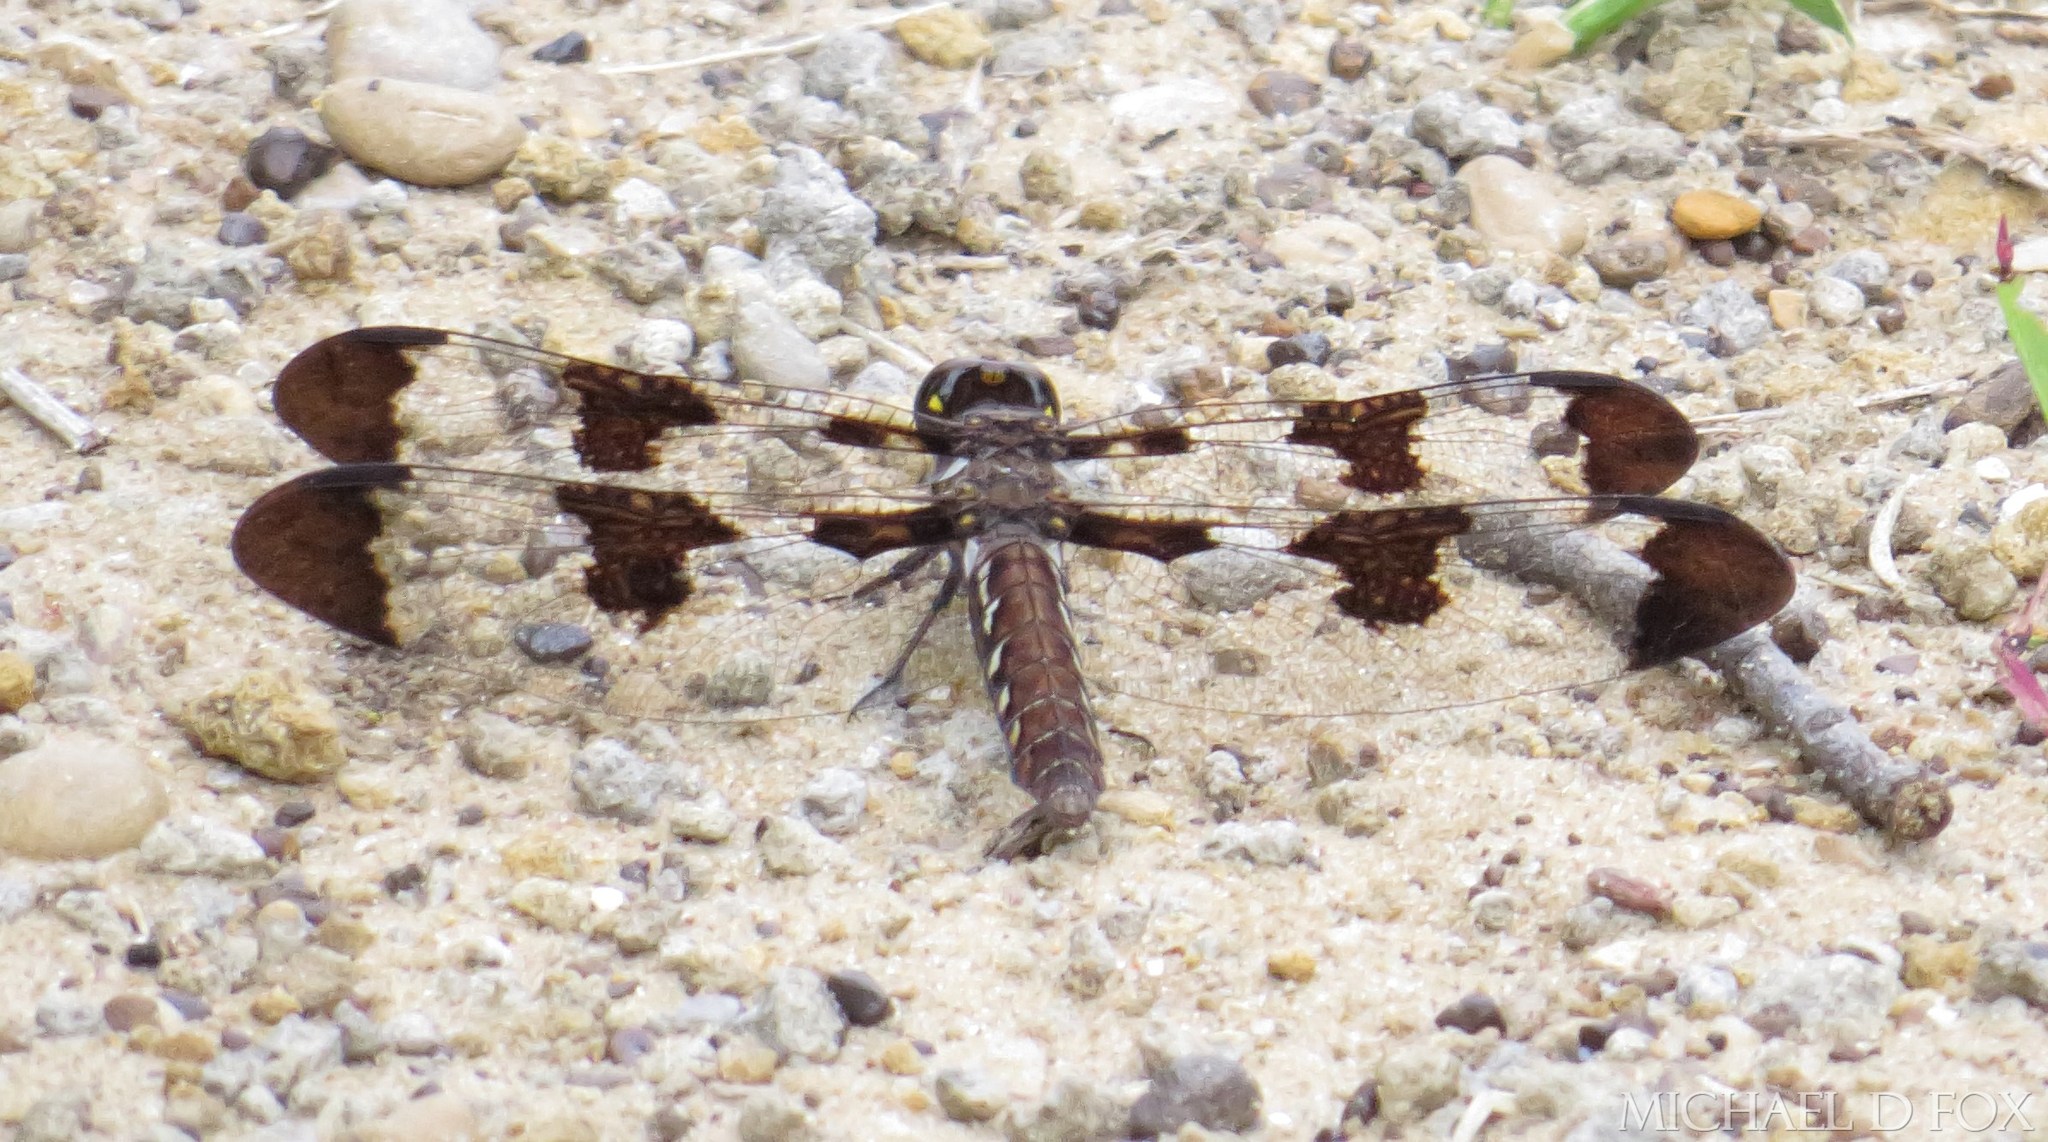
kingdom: Animalia
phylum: Arthropoda
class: Insecta
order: Odonata
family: Libellulidae
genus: Plathemis
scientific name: Plathemis lydia
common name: Common whitetail
